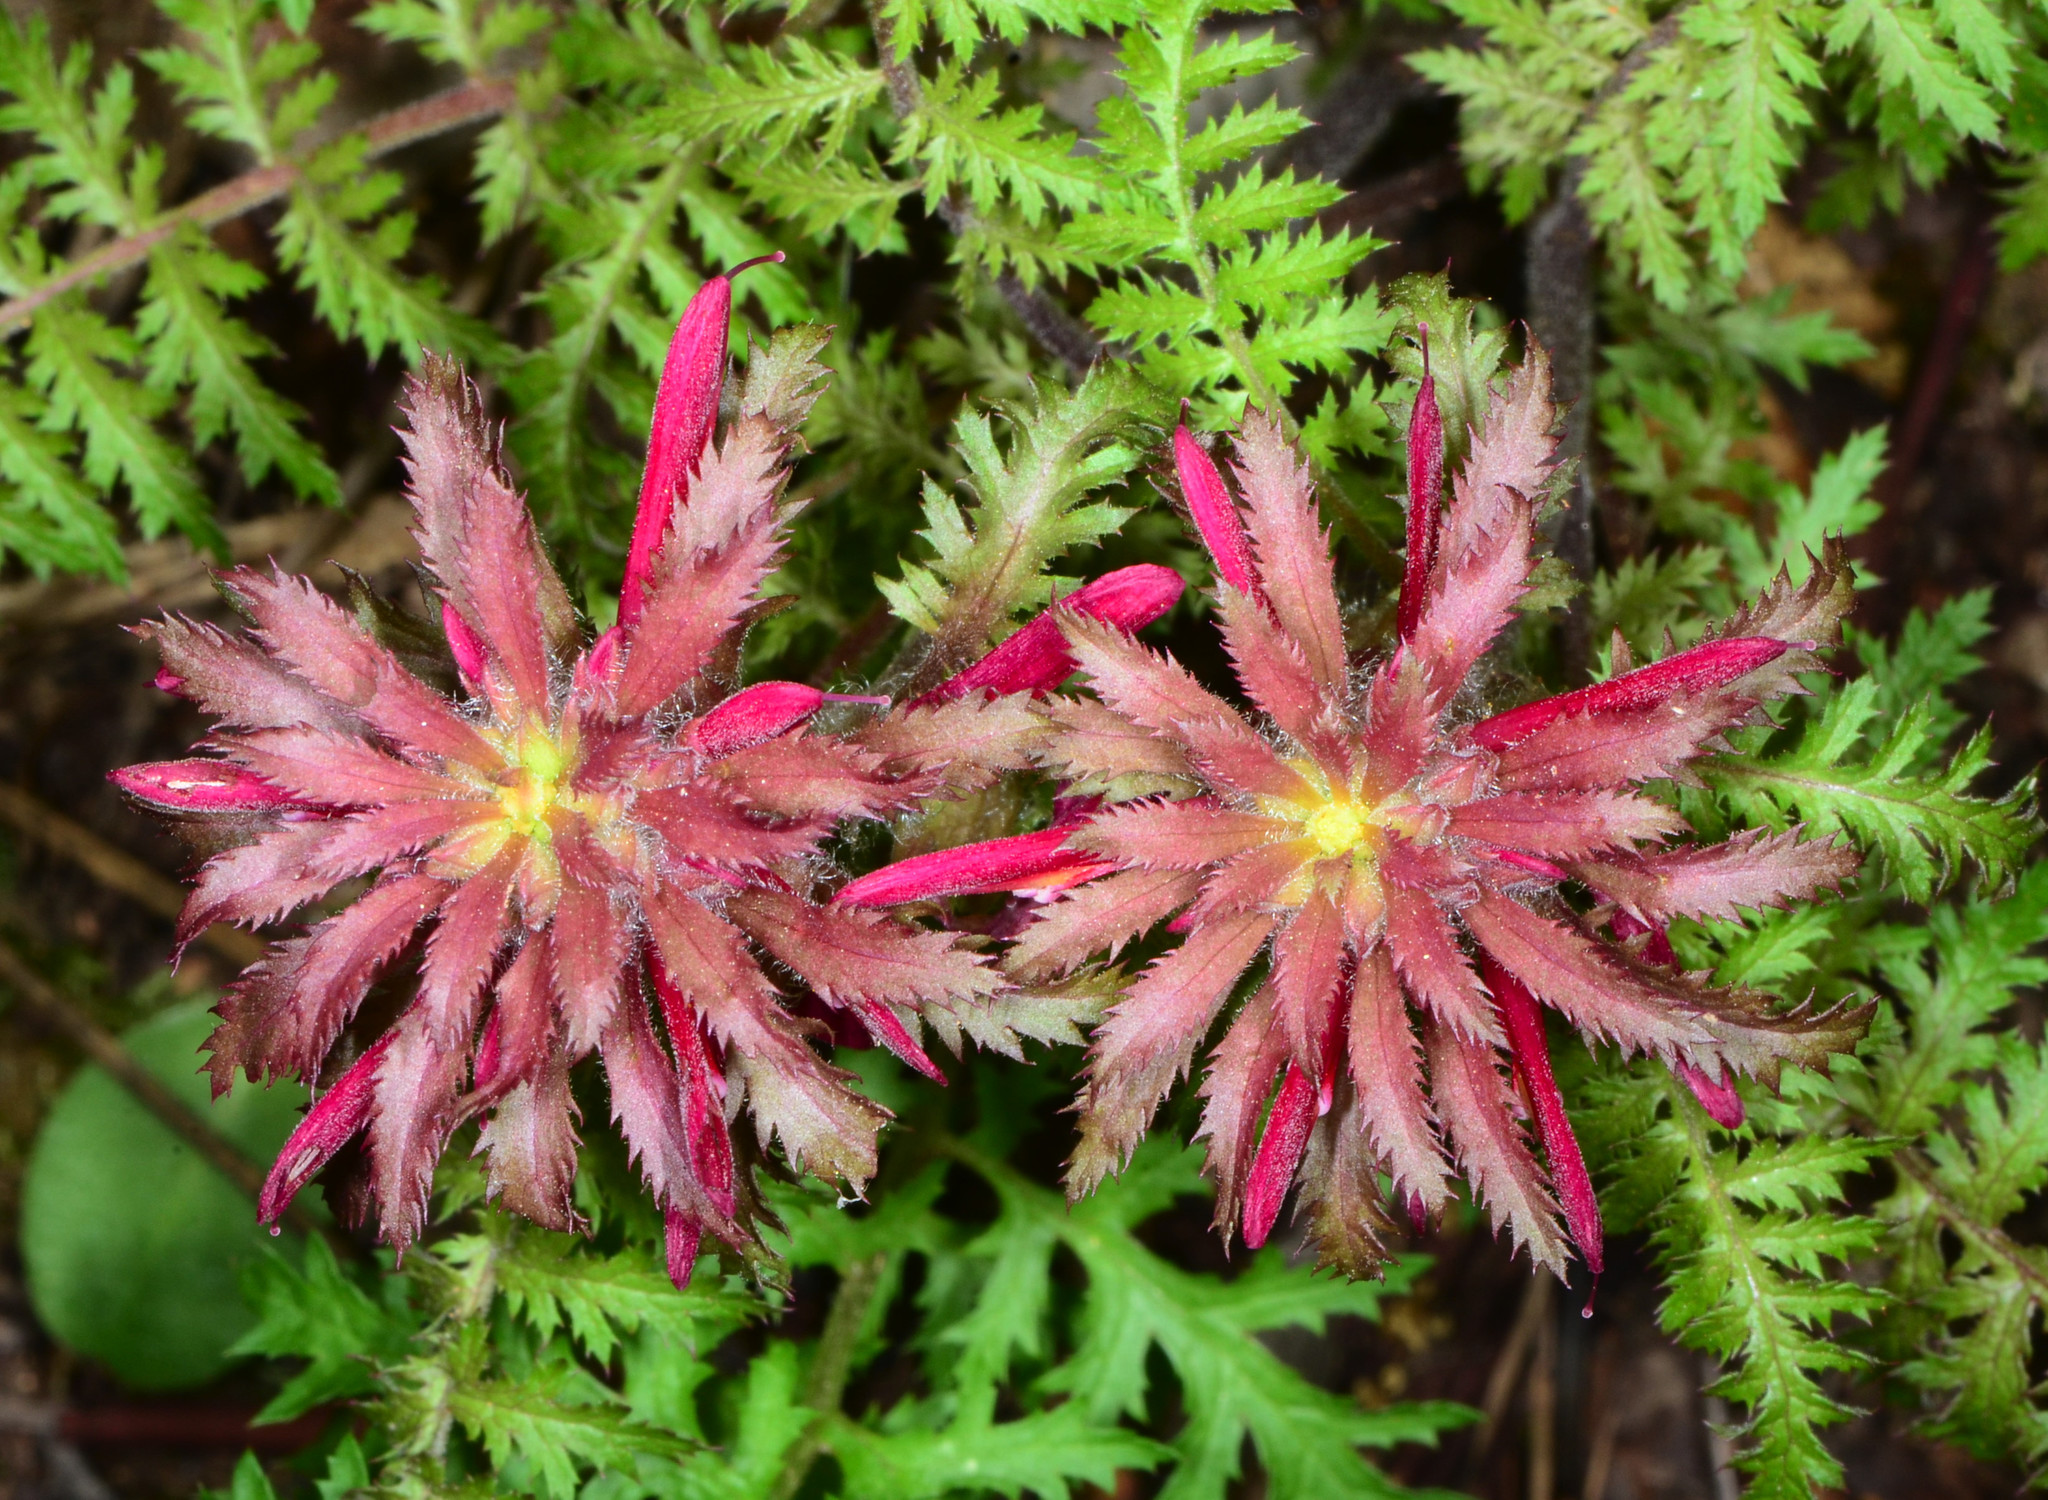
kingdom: Plantae
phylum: Tracheophyta
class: Magnoliopsida
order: Lamiales
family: Orobanchaceae
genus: Pedicularis
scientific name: Pedicularis densiflora
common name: Indian warrior
